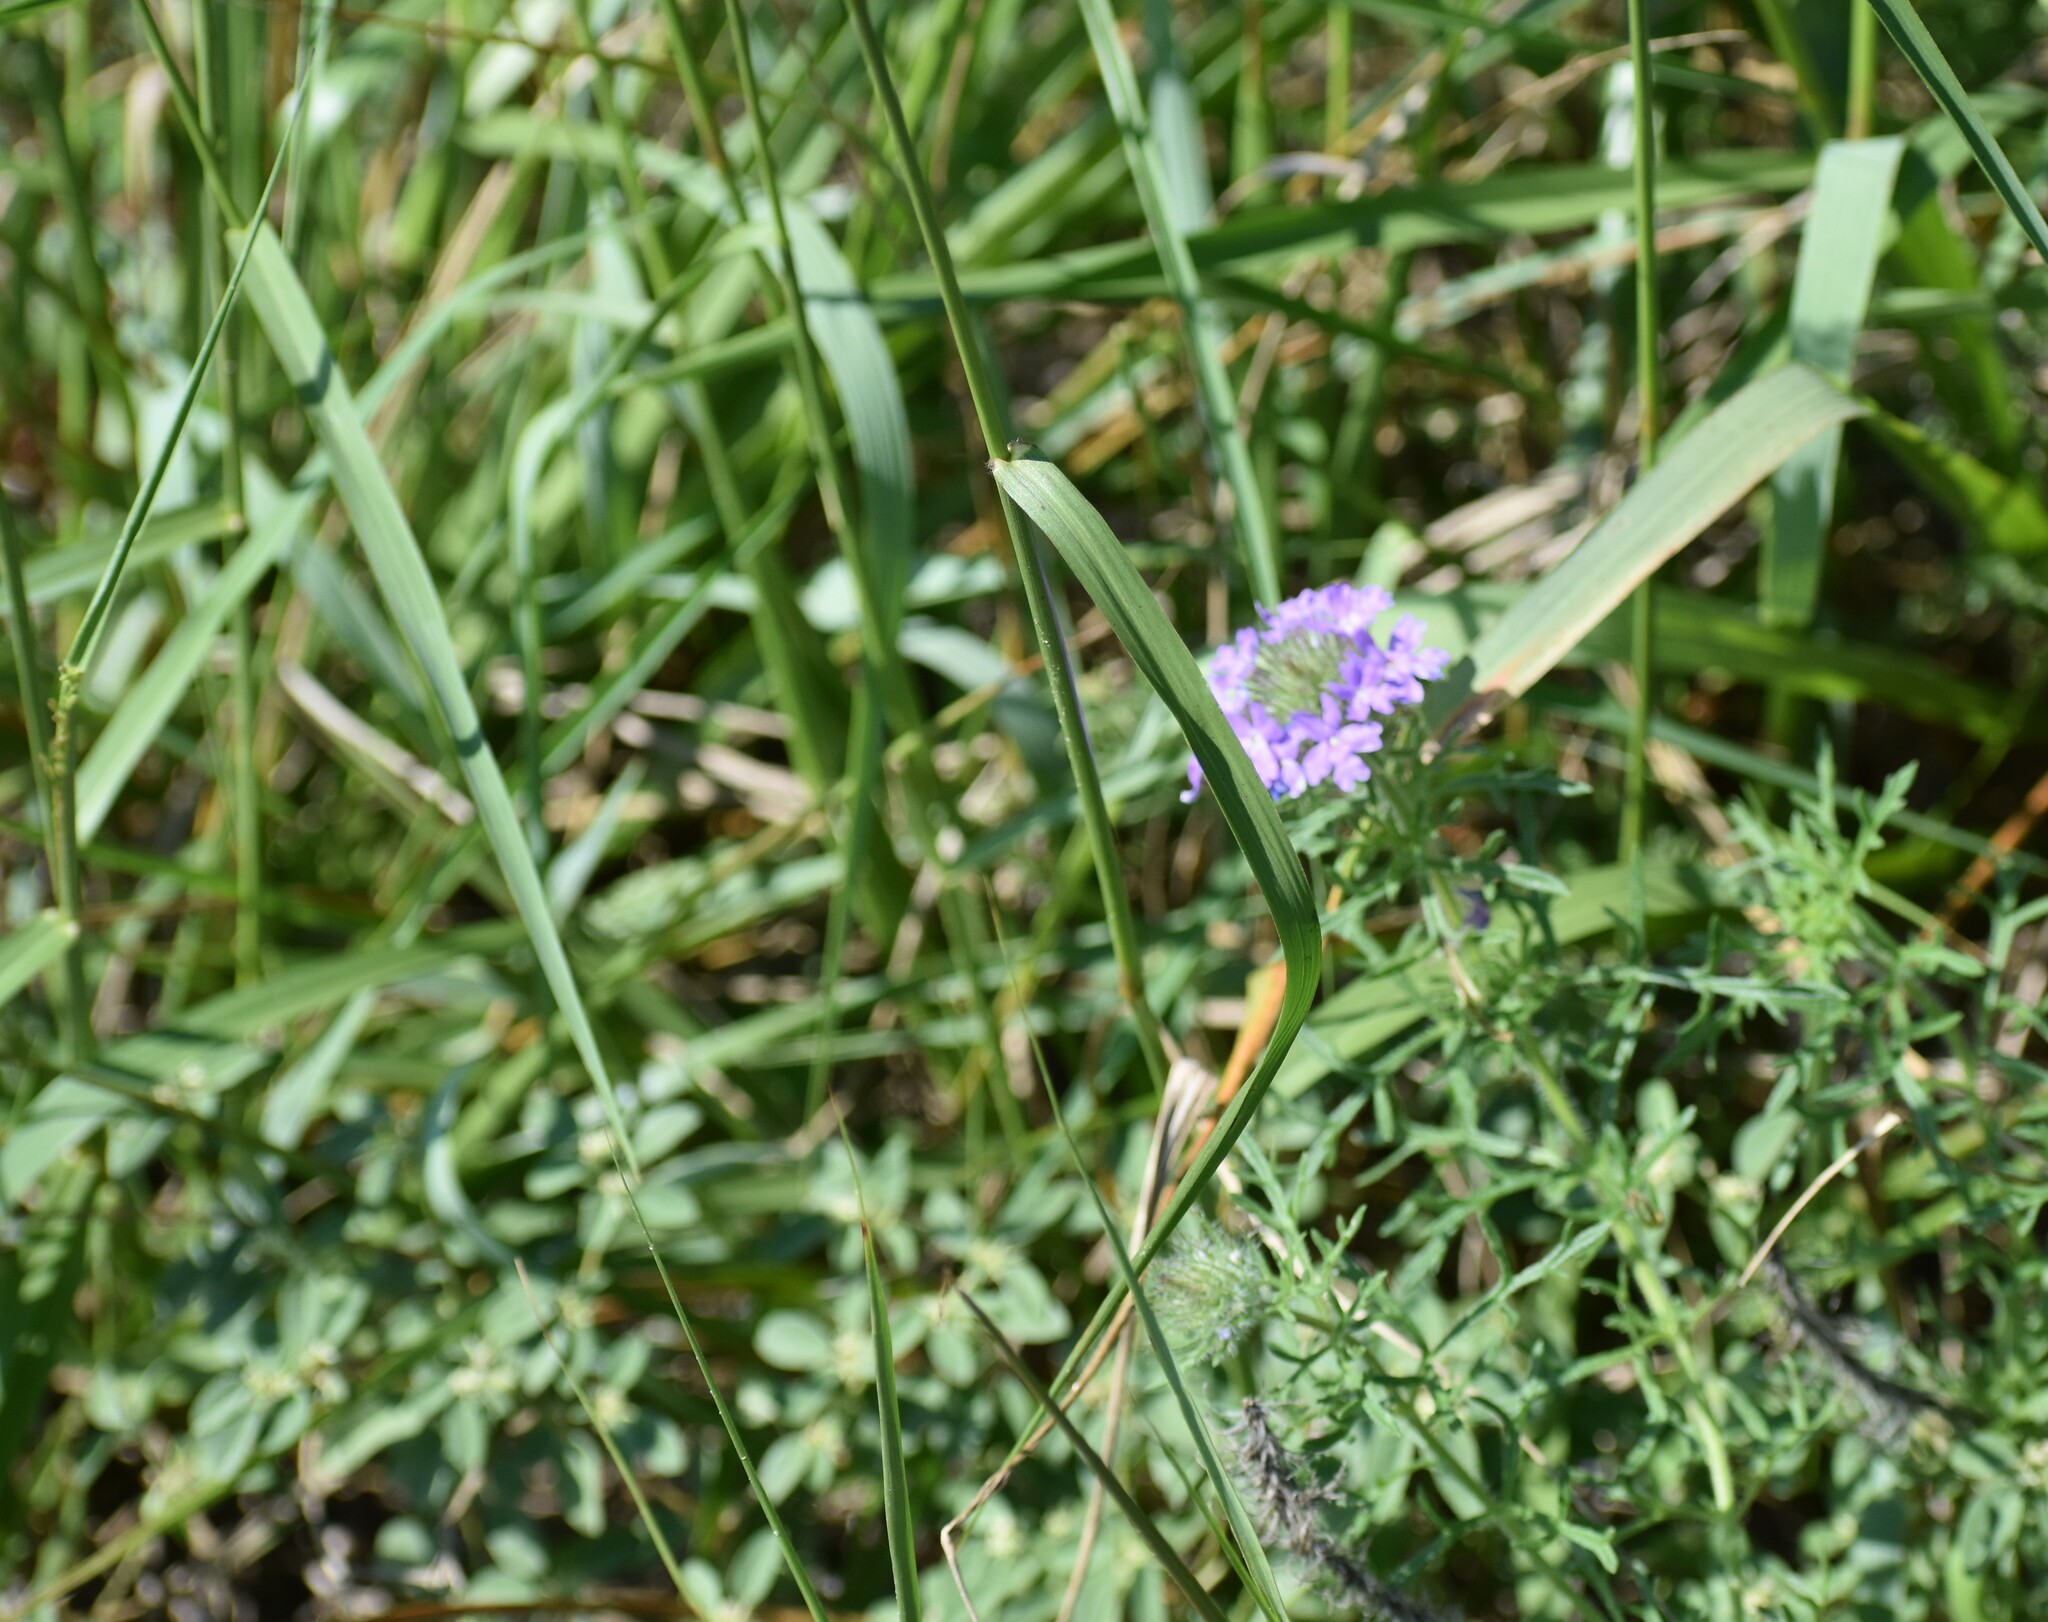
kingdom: Plantae
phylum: Tracheophyta
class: Magnoliopsida
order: Lamiales
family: Verbenaceae
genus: Verbena
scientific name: Verbena bipinnatifida
